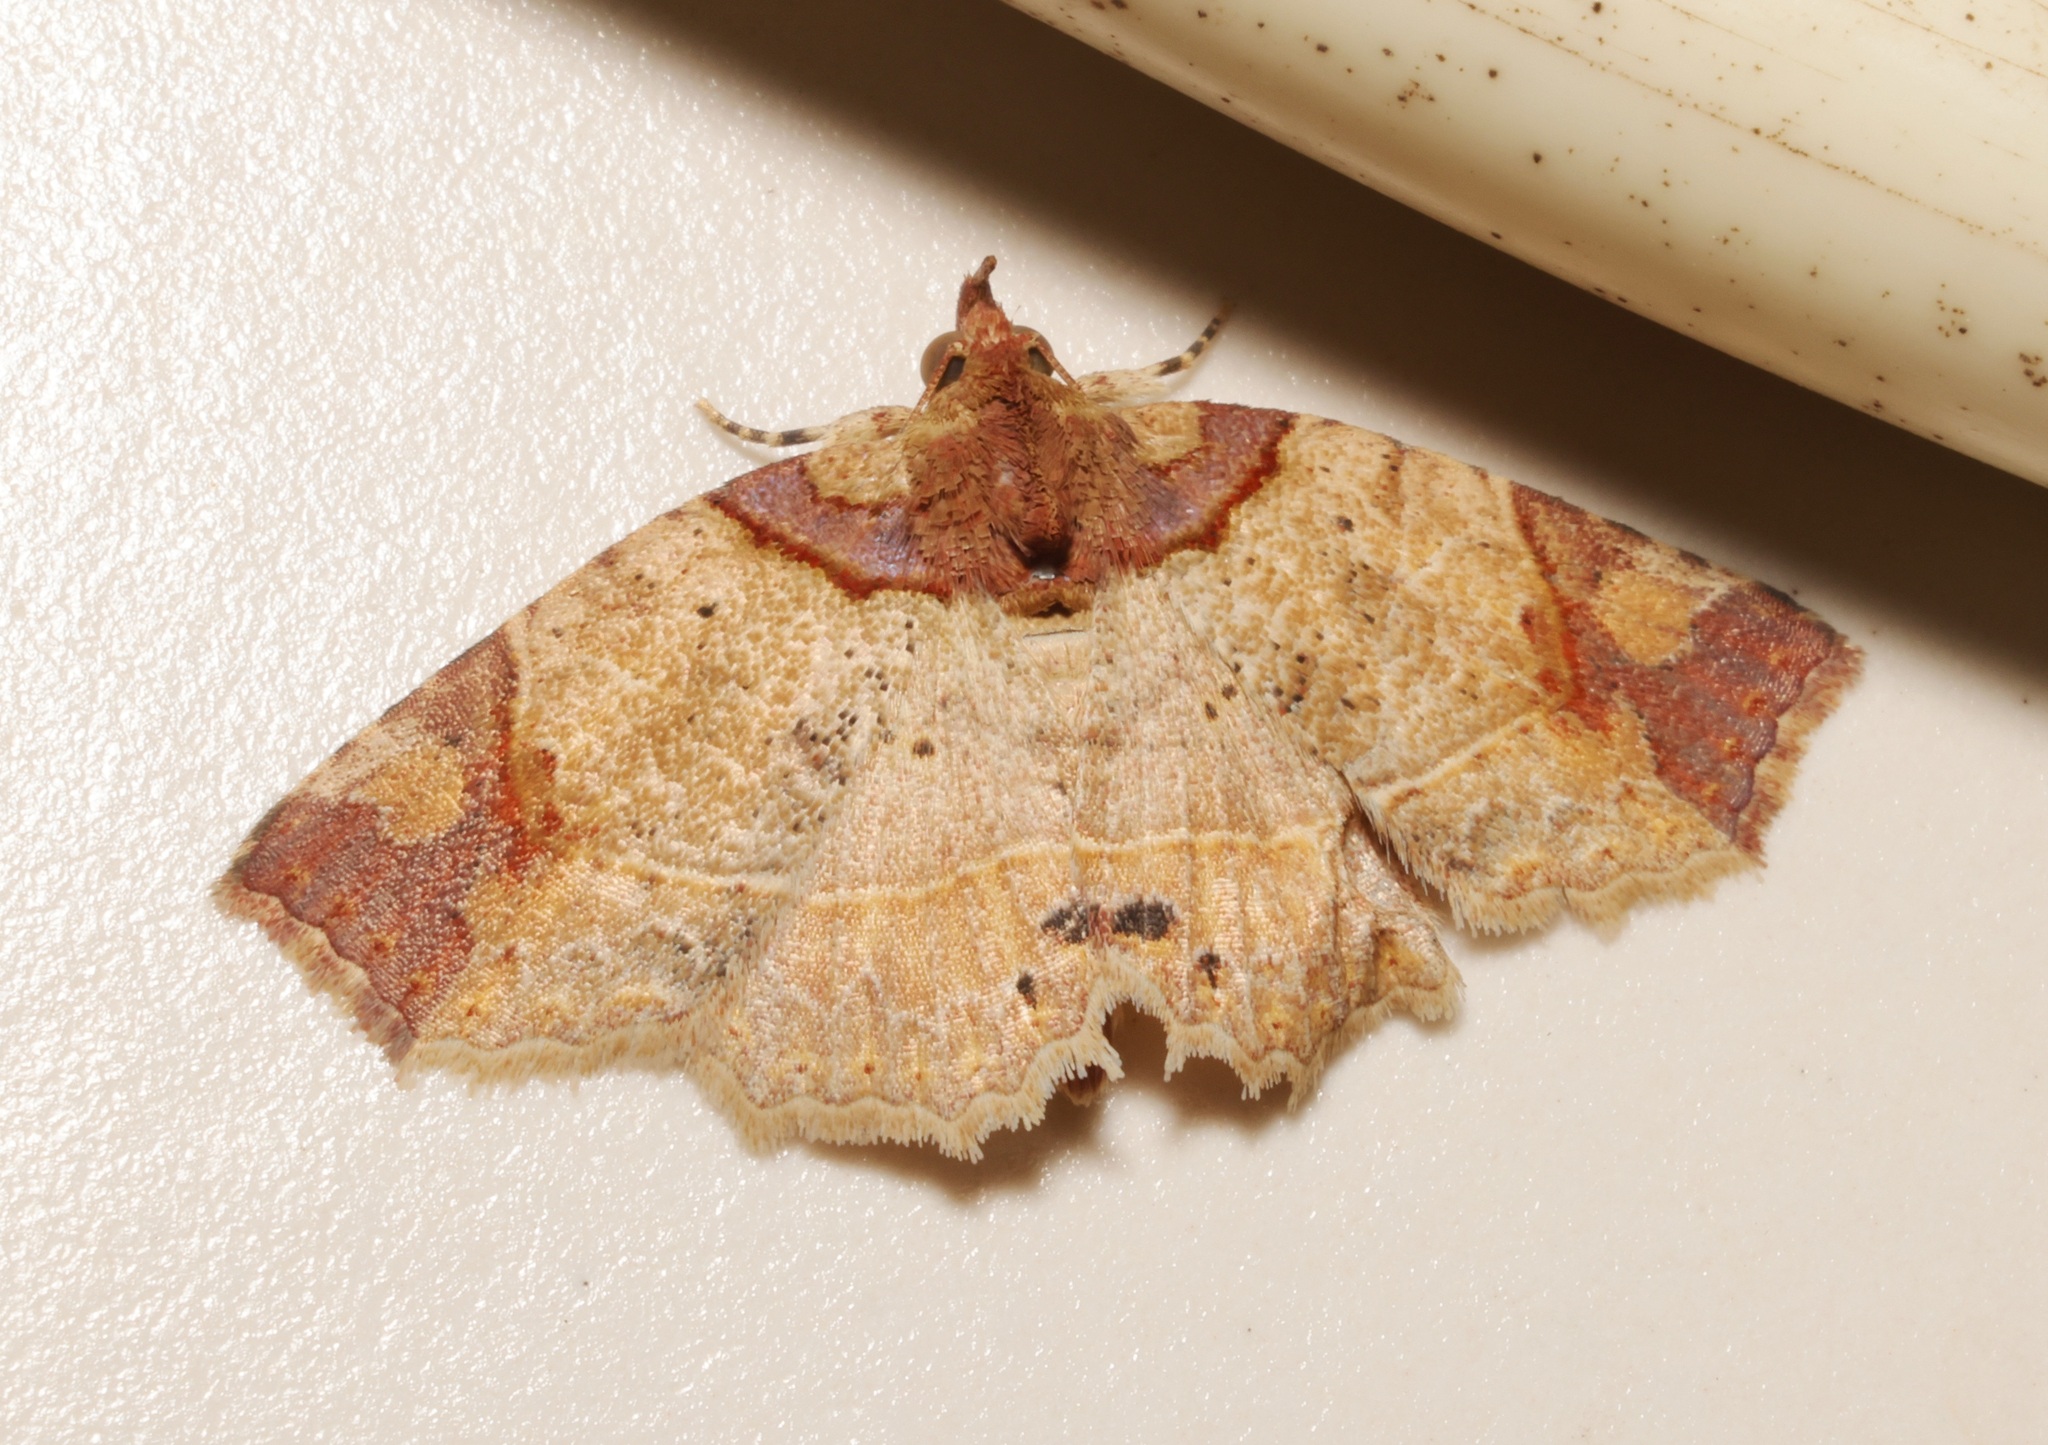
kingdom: Animalia
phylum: Arthropoda
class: Insecta
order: Lepidoptera
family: Erebidae
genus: Tamba
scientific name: Tamba apicata
